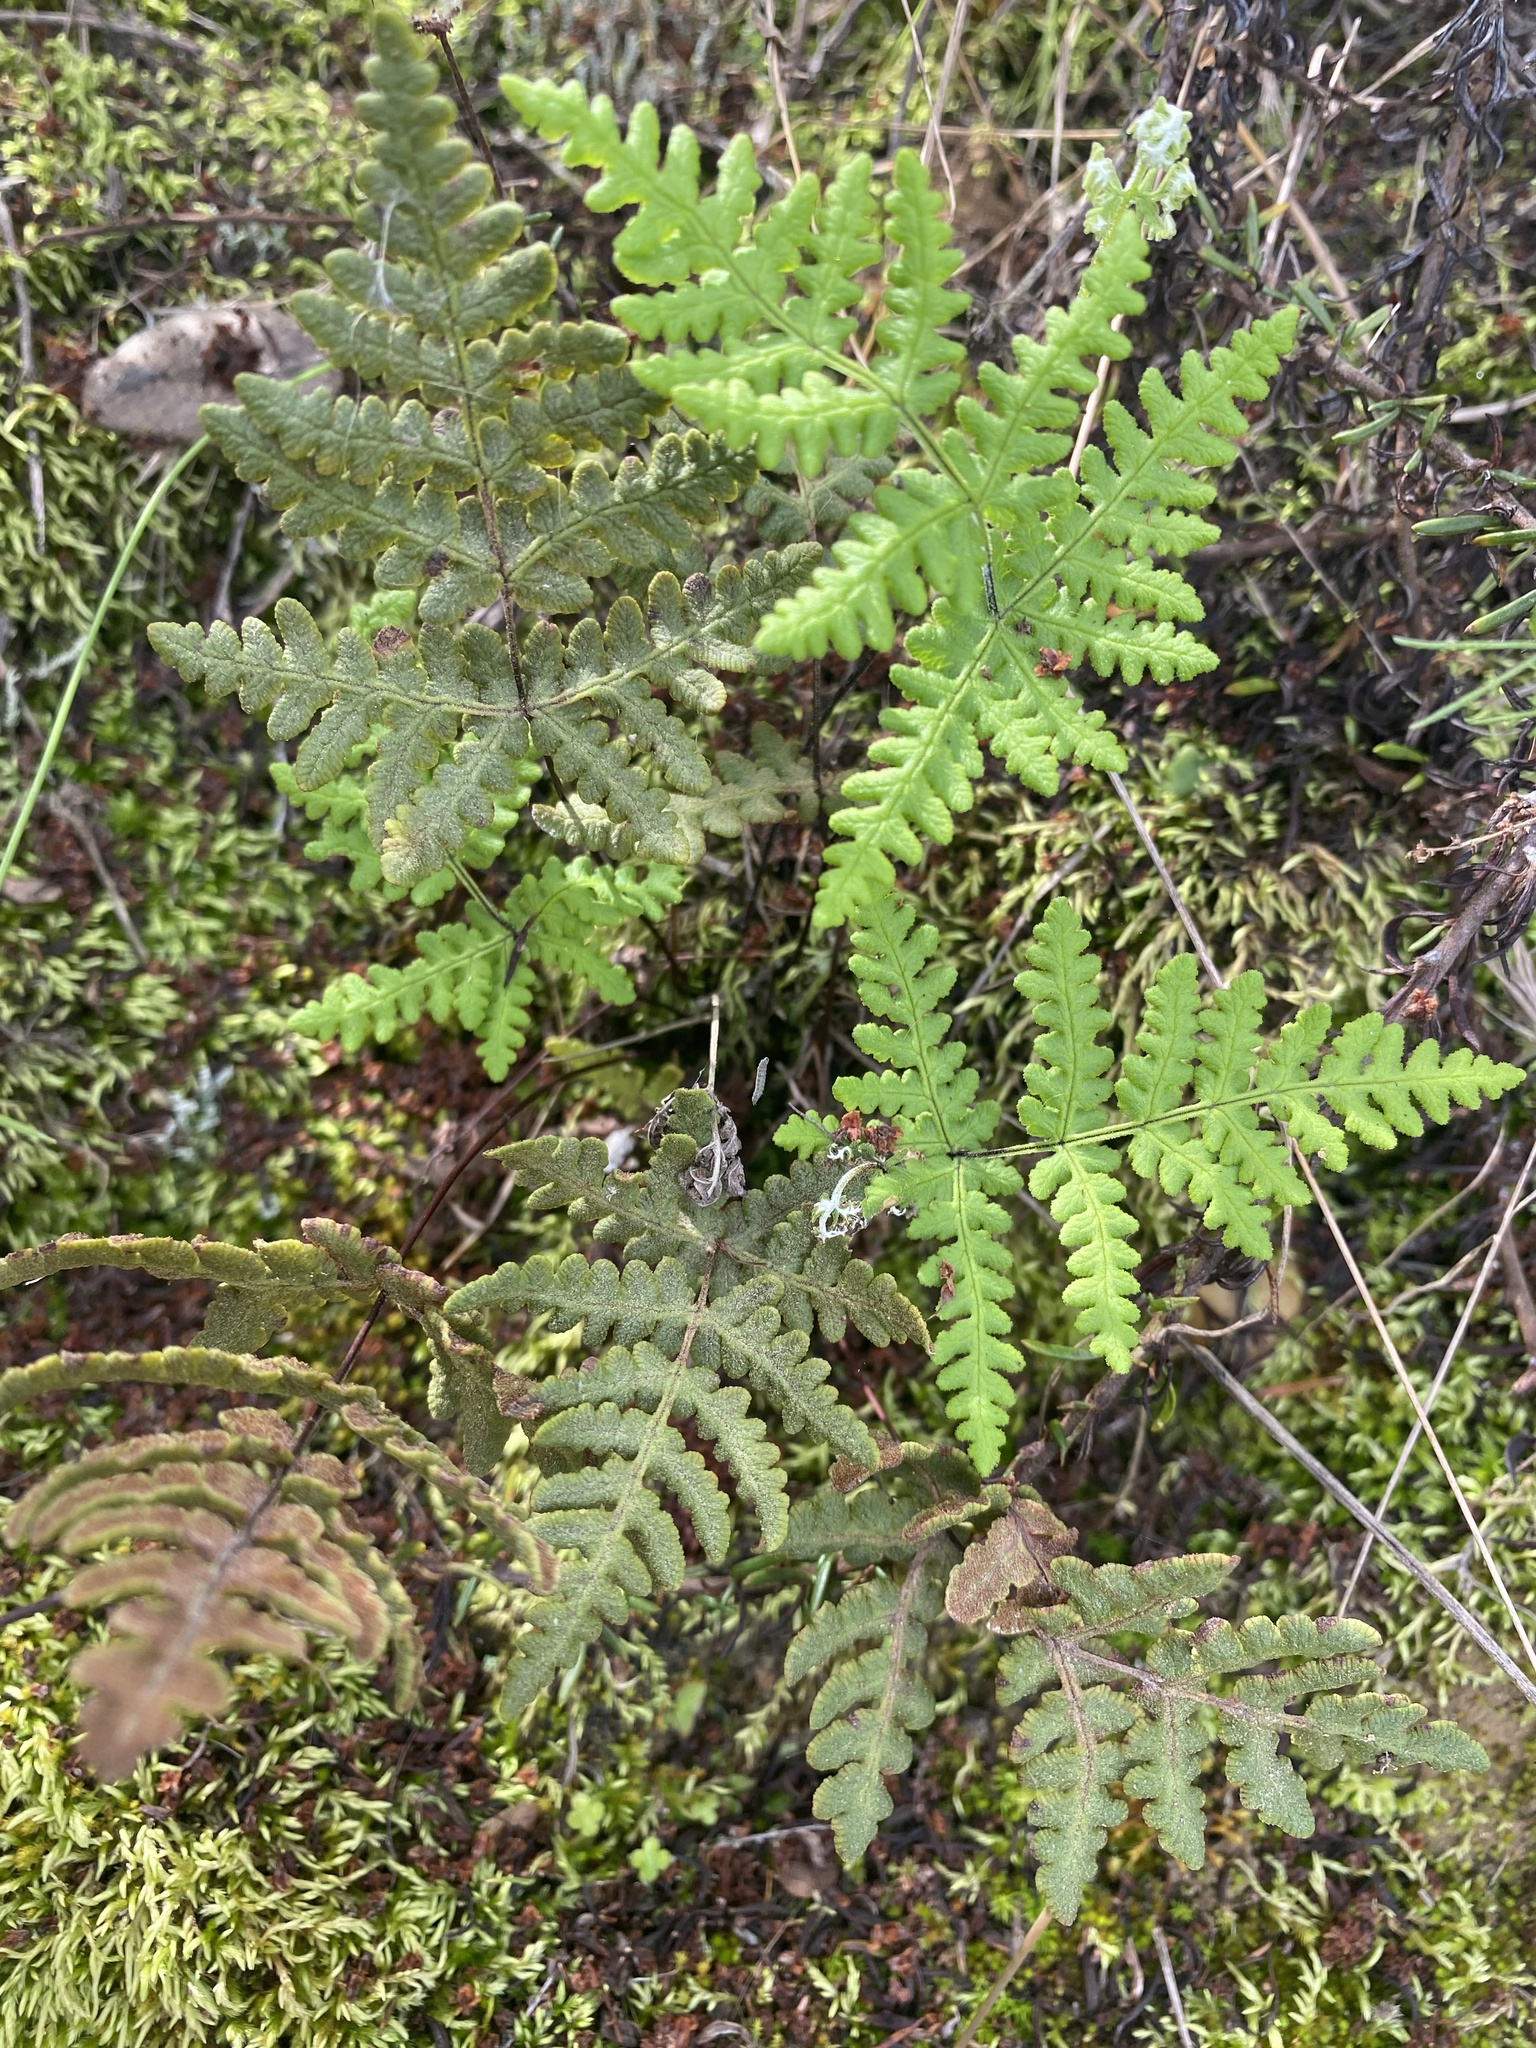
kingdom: Plantae
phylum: Tracheophyta
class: Polypodiopsida
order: Polypodiales
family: Pteridaceae
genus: Pentagramma
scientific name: Pentagramma glanduloviscida
